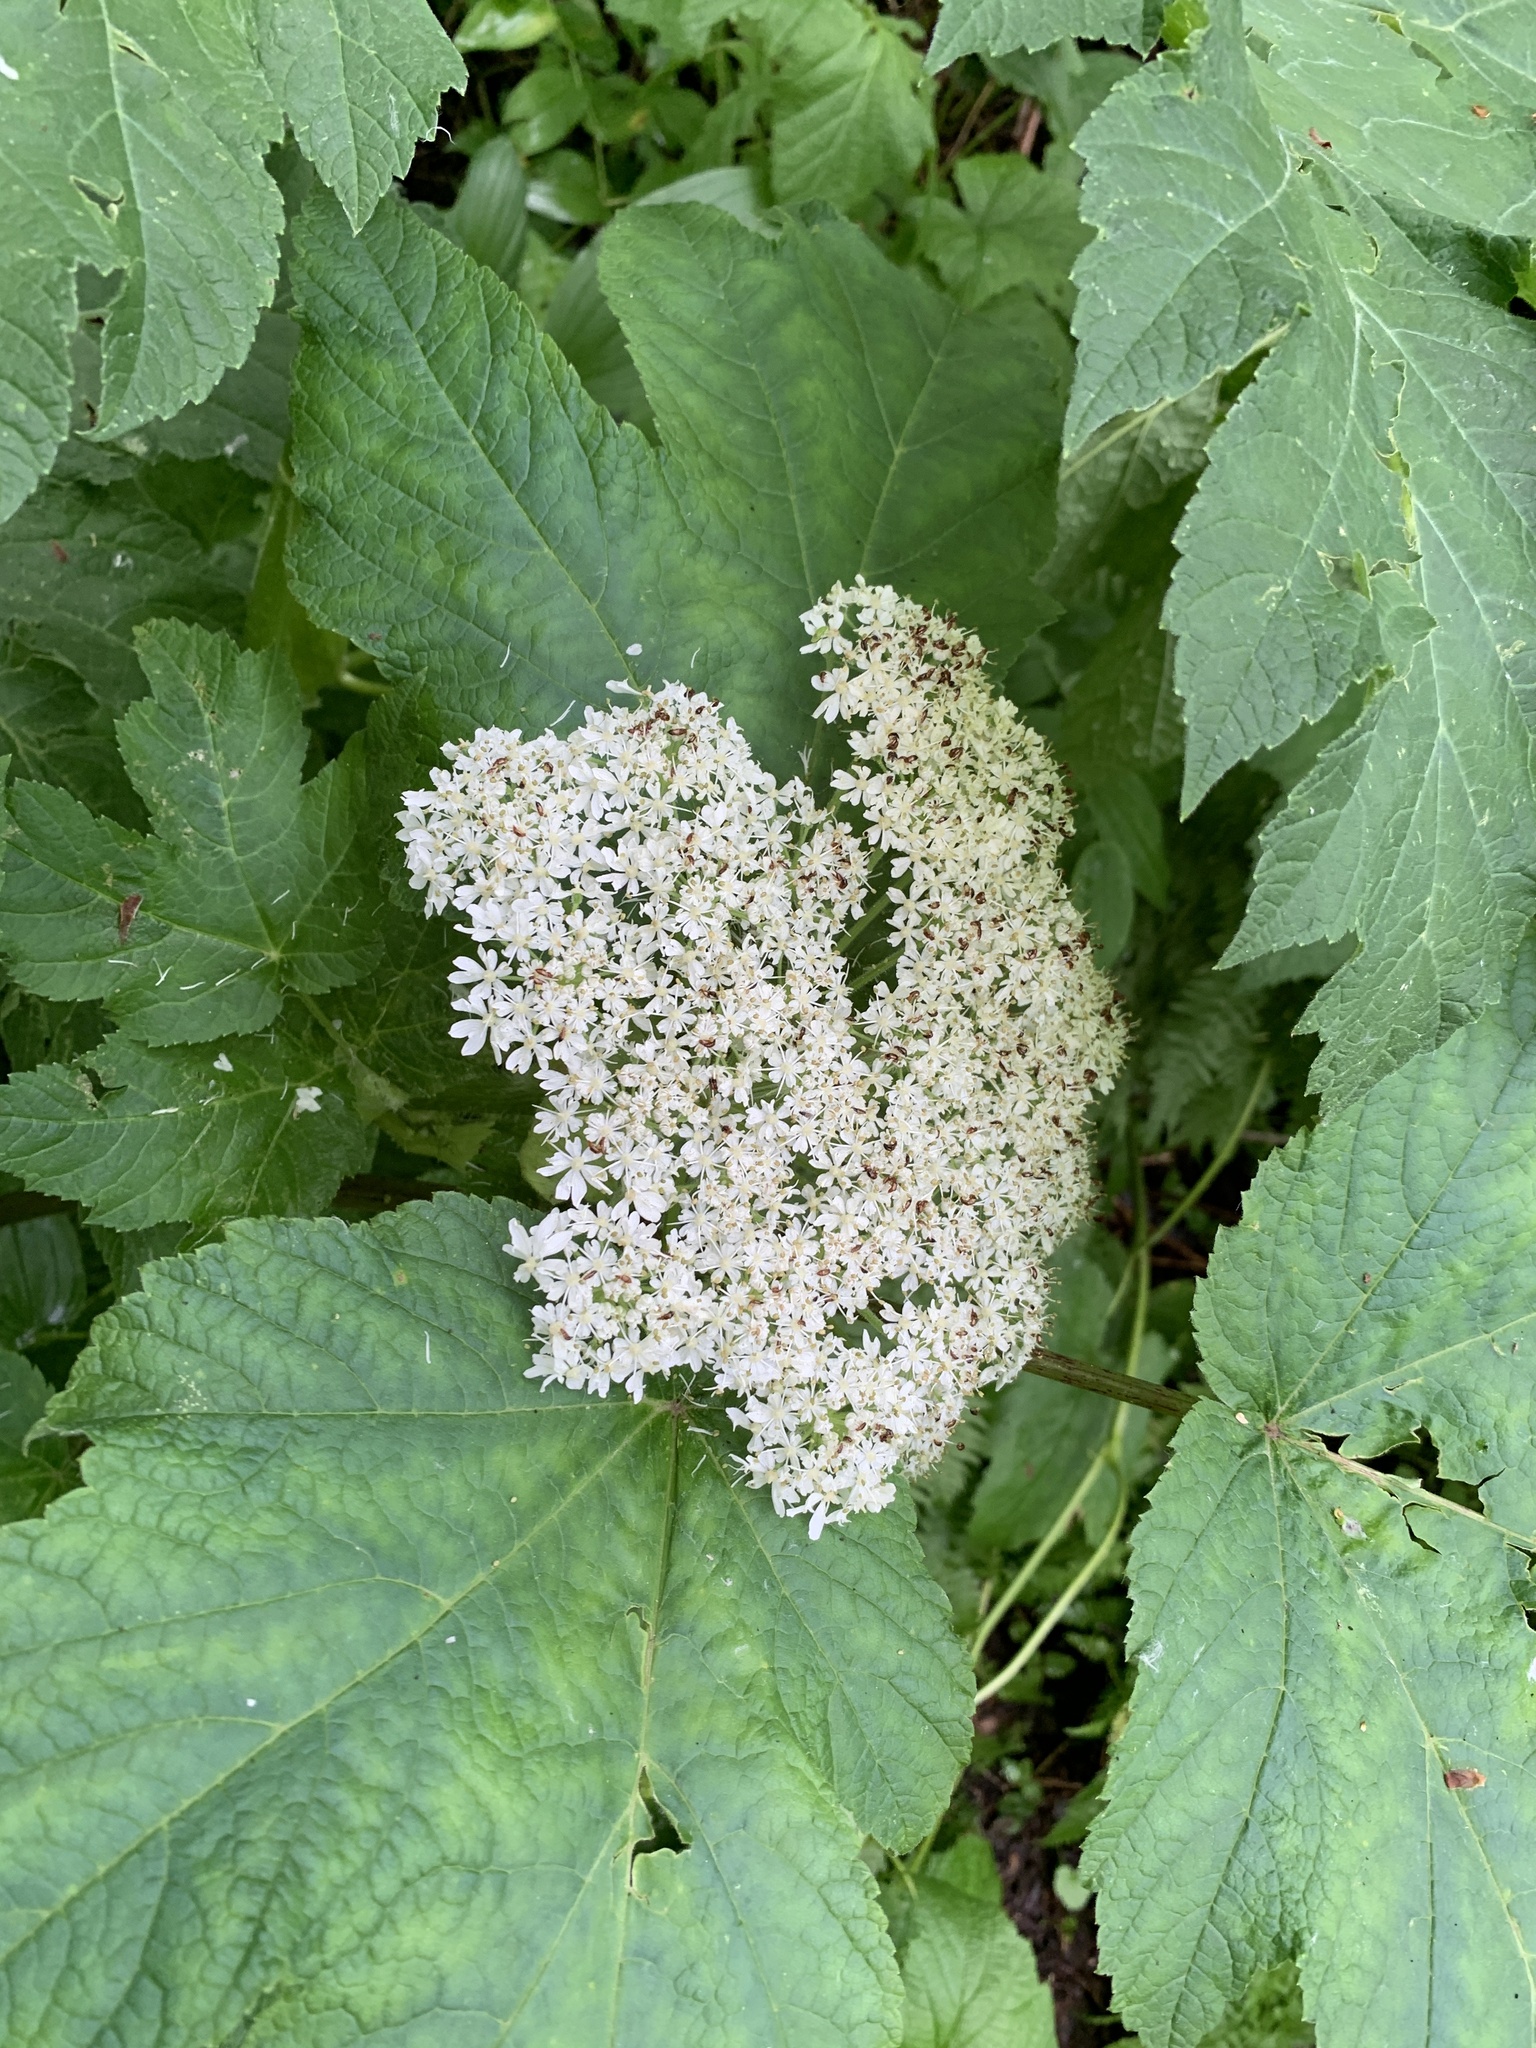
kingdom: Plantae
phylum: Tracheophyta
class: Magnoliopsida
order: Apiales
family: Apiaceae
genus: Heracleum
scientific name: Heracleum maximum
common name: American cow parsnip
